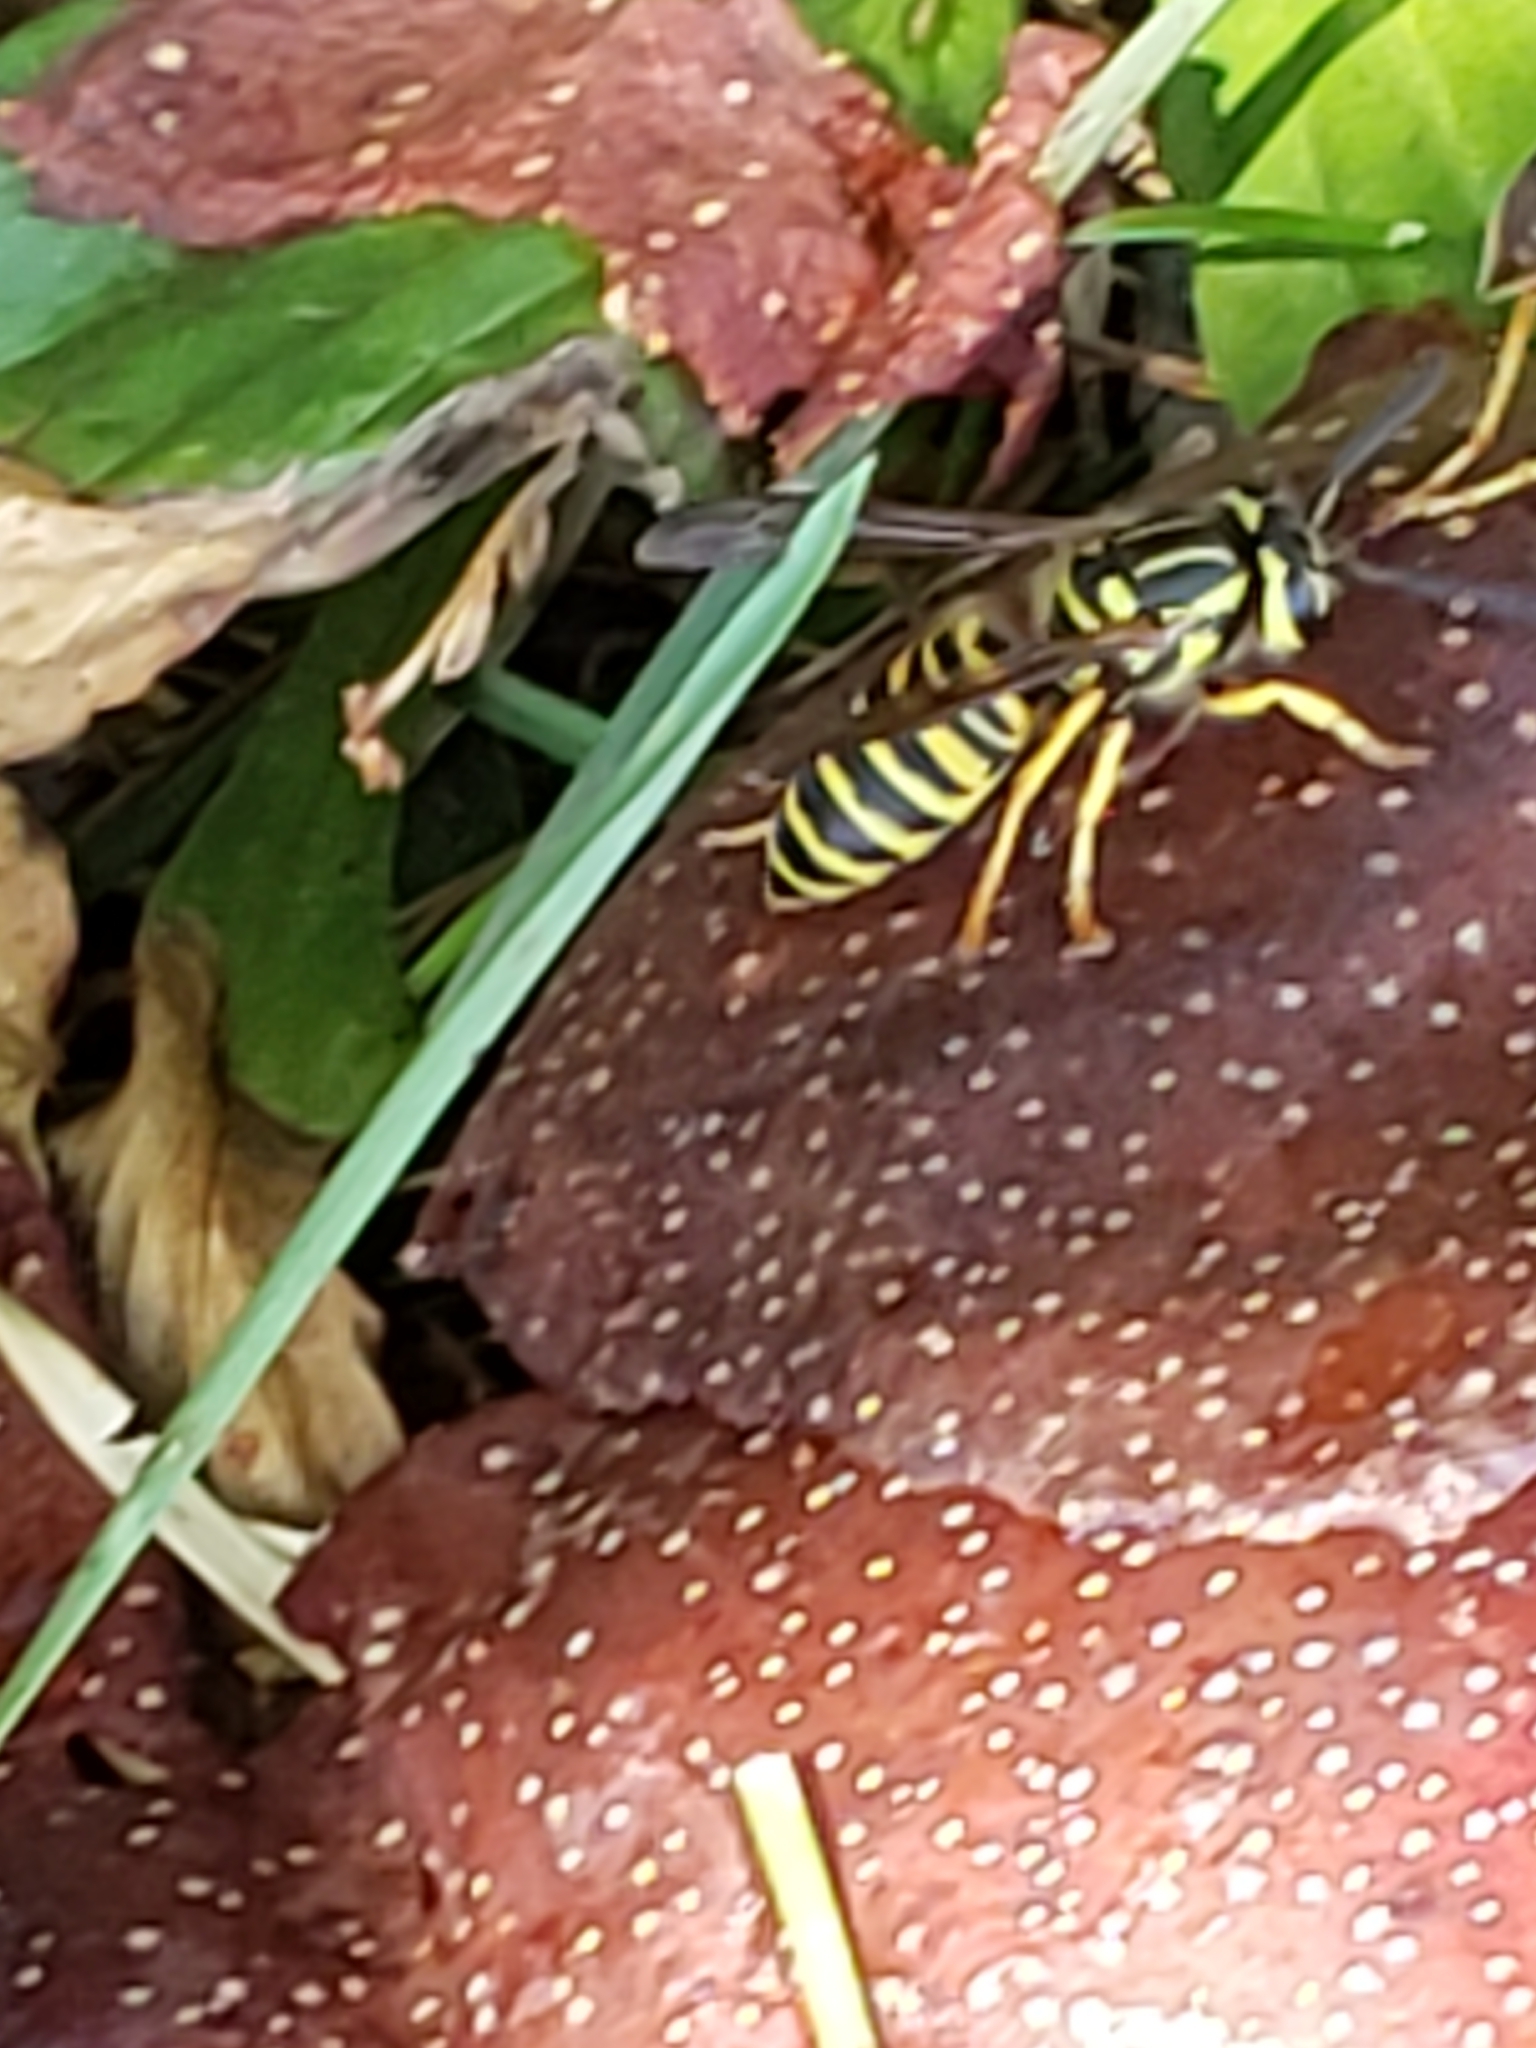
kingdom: Animalia
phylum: Arthropoda
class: Insecta
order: Hymenoptera
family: Vespidae
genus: Vespula
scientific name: Vespula squamosa
